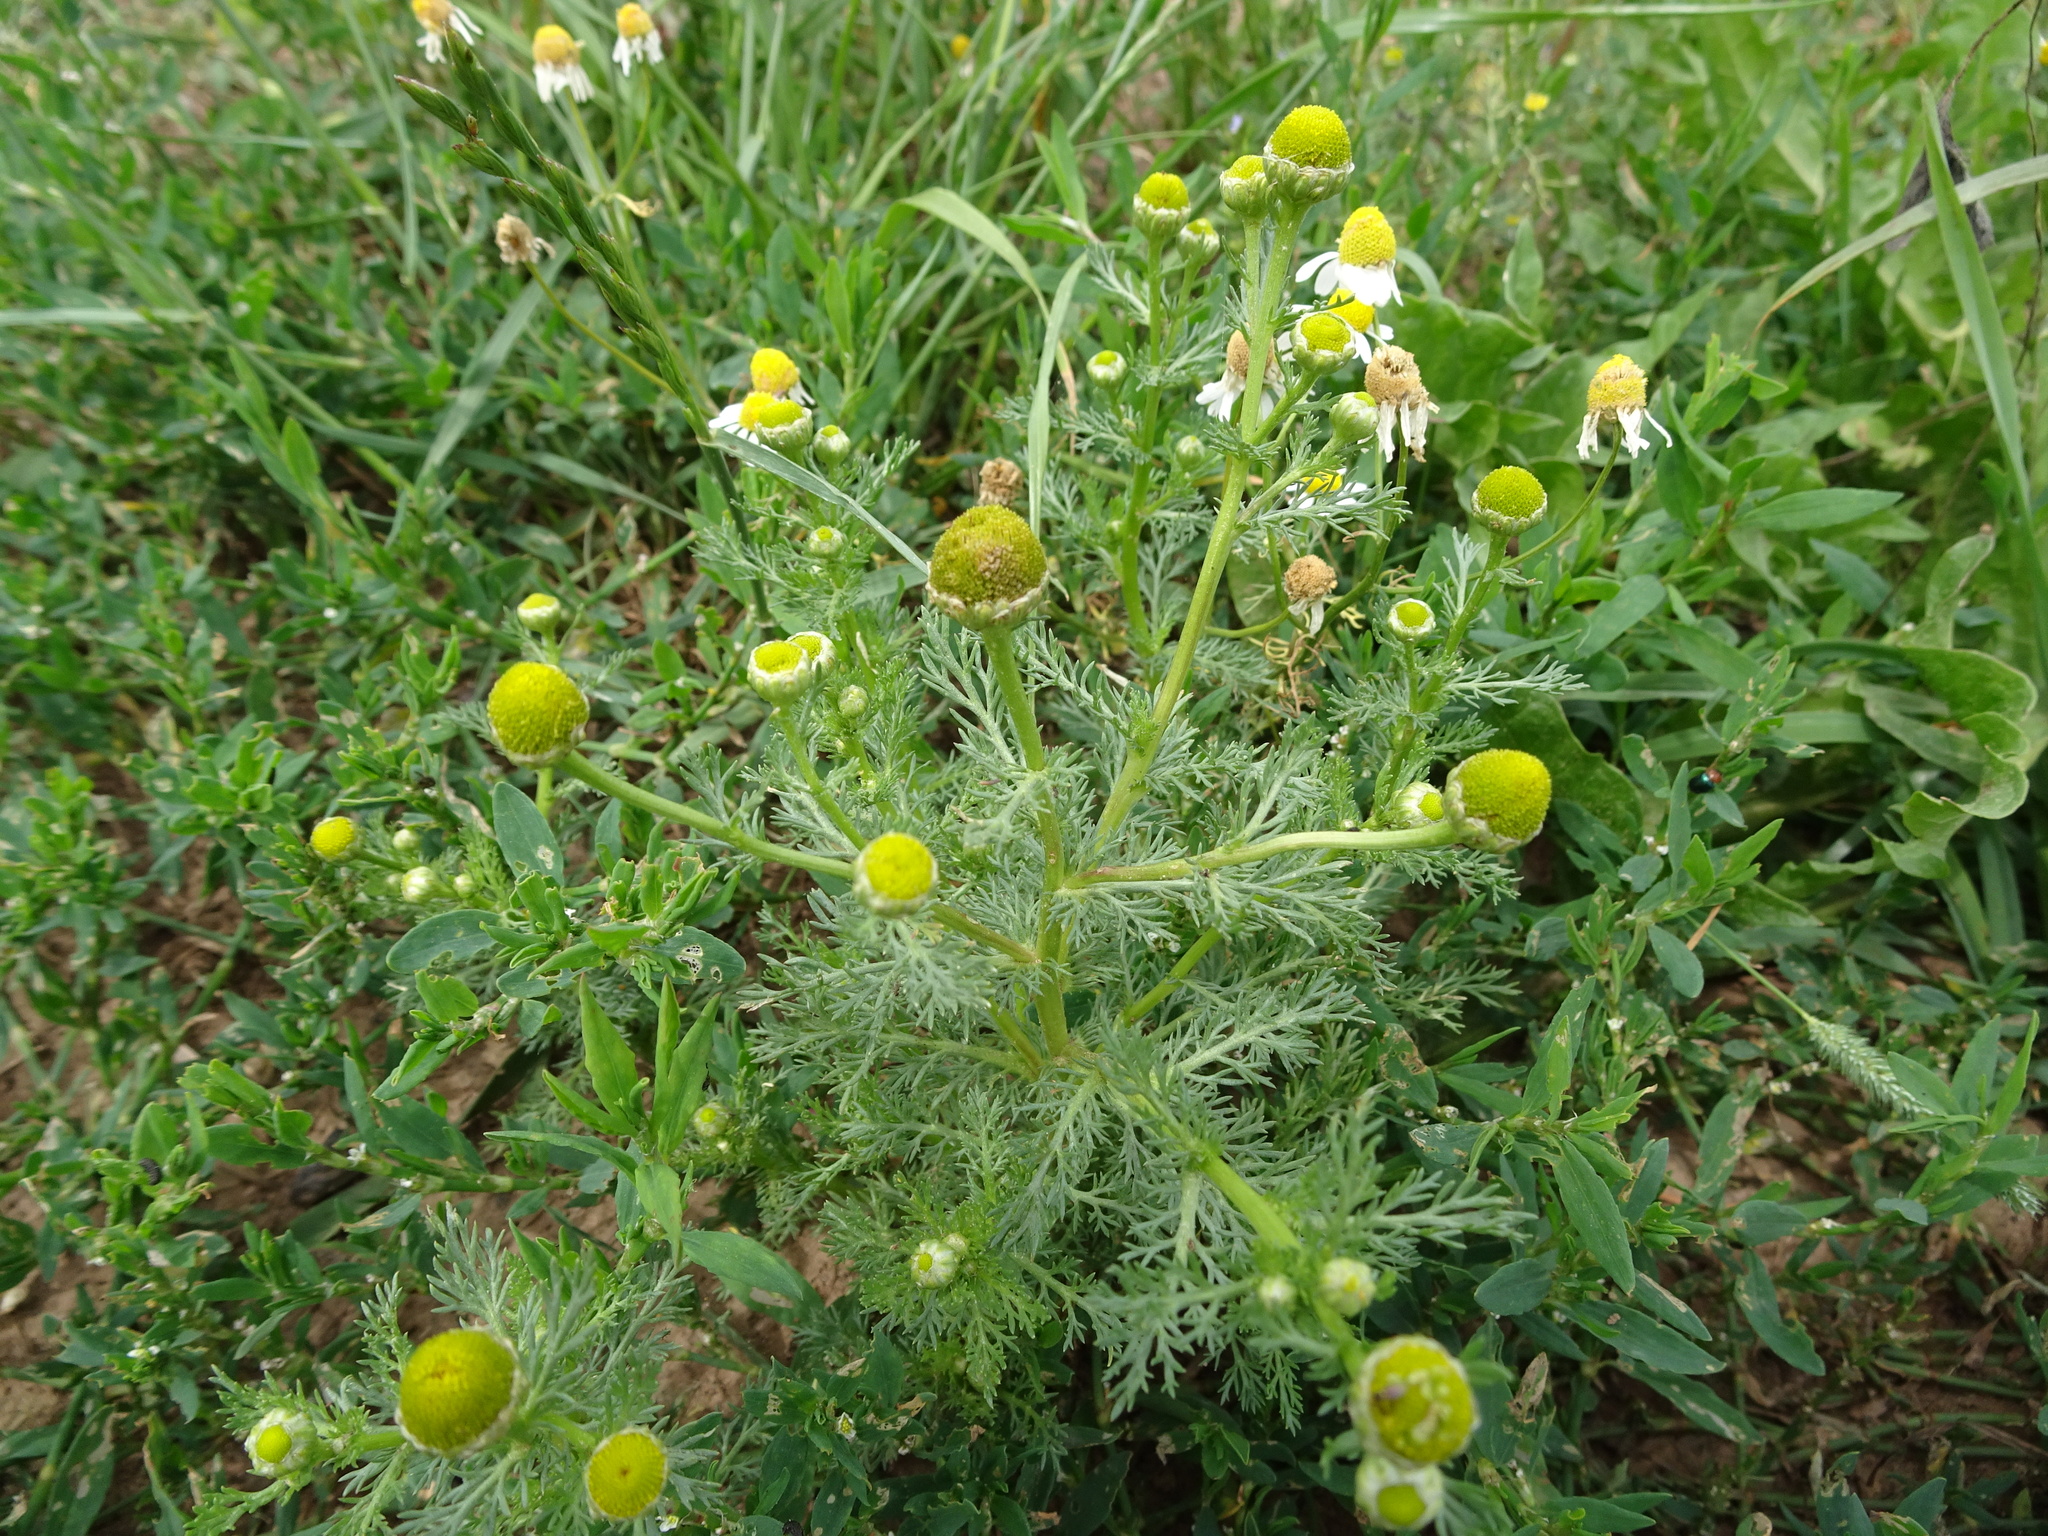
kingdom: Plantae
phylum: Tracheophyta
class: Magnoliopsida
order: Asterales
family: Asteraceae
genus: Matricaria
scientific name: Matricaria discoidea
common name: Disc mayweed
